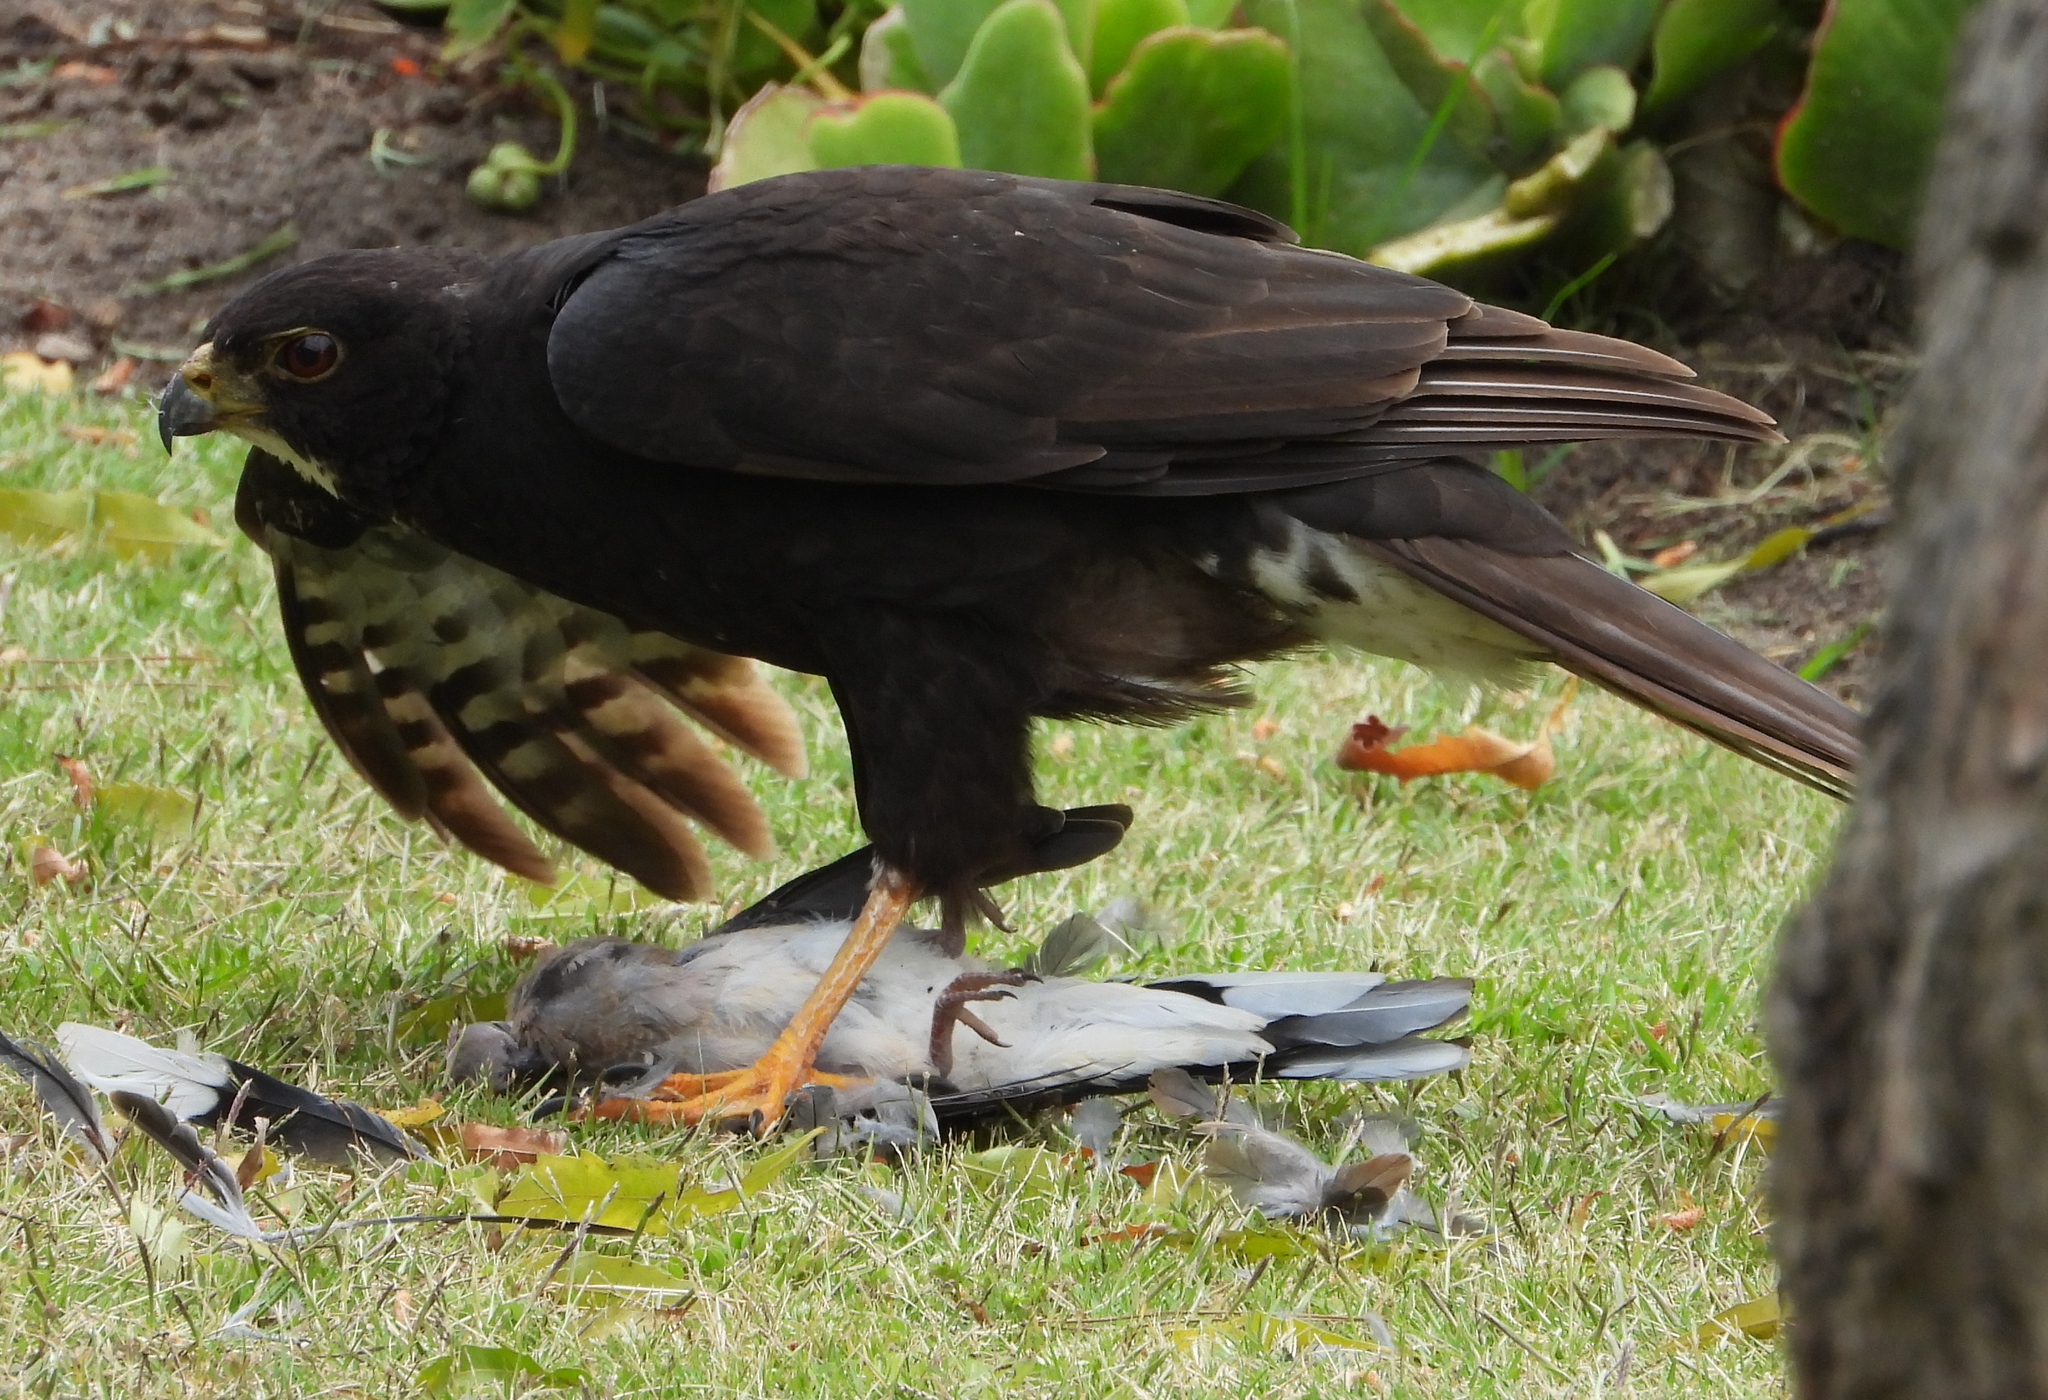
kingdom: Animalia
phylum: Chordata
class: Aves
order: Accipitriformes
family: Accipitridae
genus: Accipiter
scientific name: Accipiter melanoleucus
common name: Black sparrowhawk
